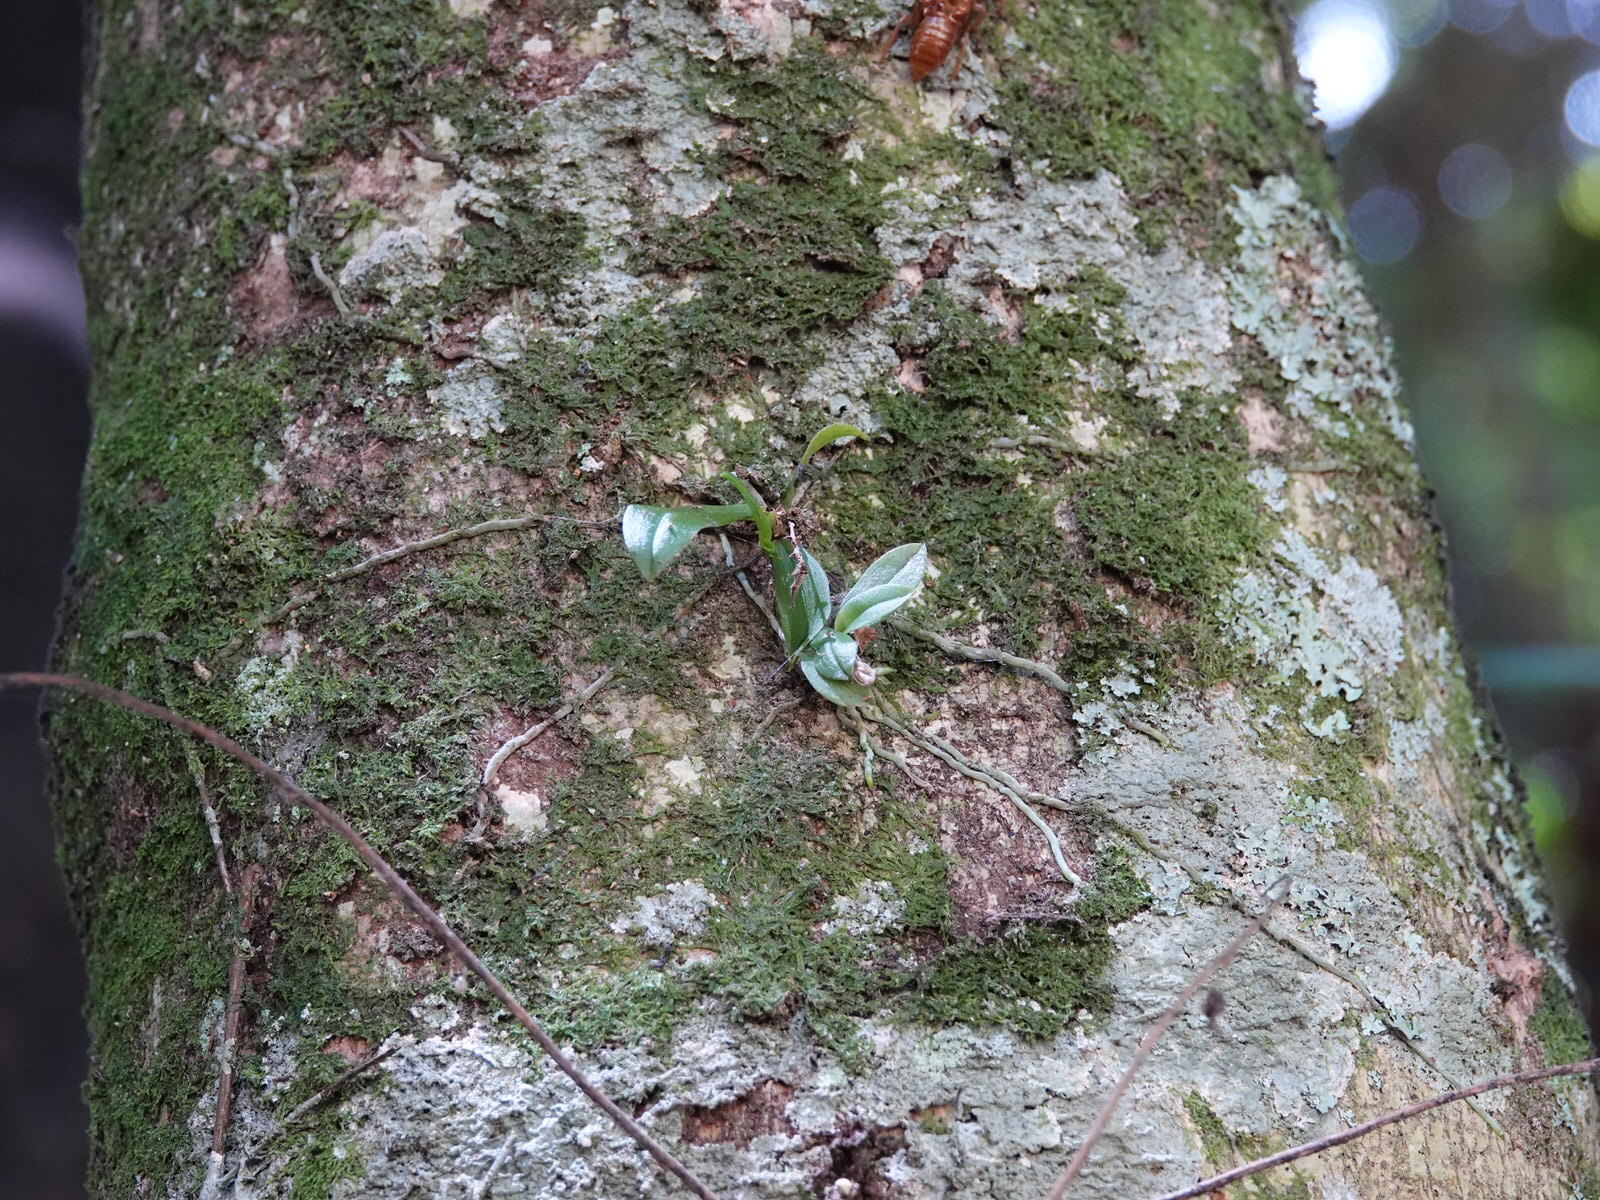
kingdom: Plantae
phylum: Tracheophyta
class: Liliopsida
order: Asparagales
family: Orchidaceae
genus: Drymoanthus
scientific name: Drymoanthus adversus
